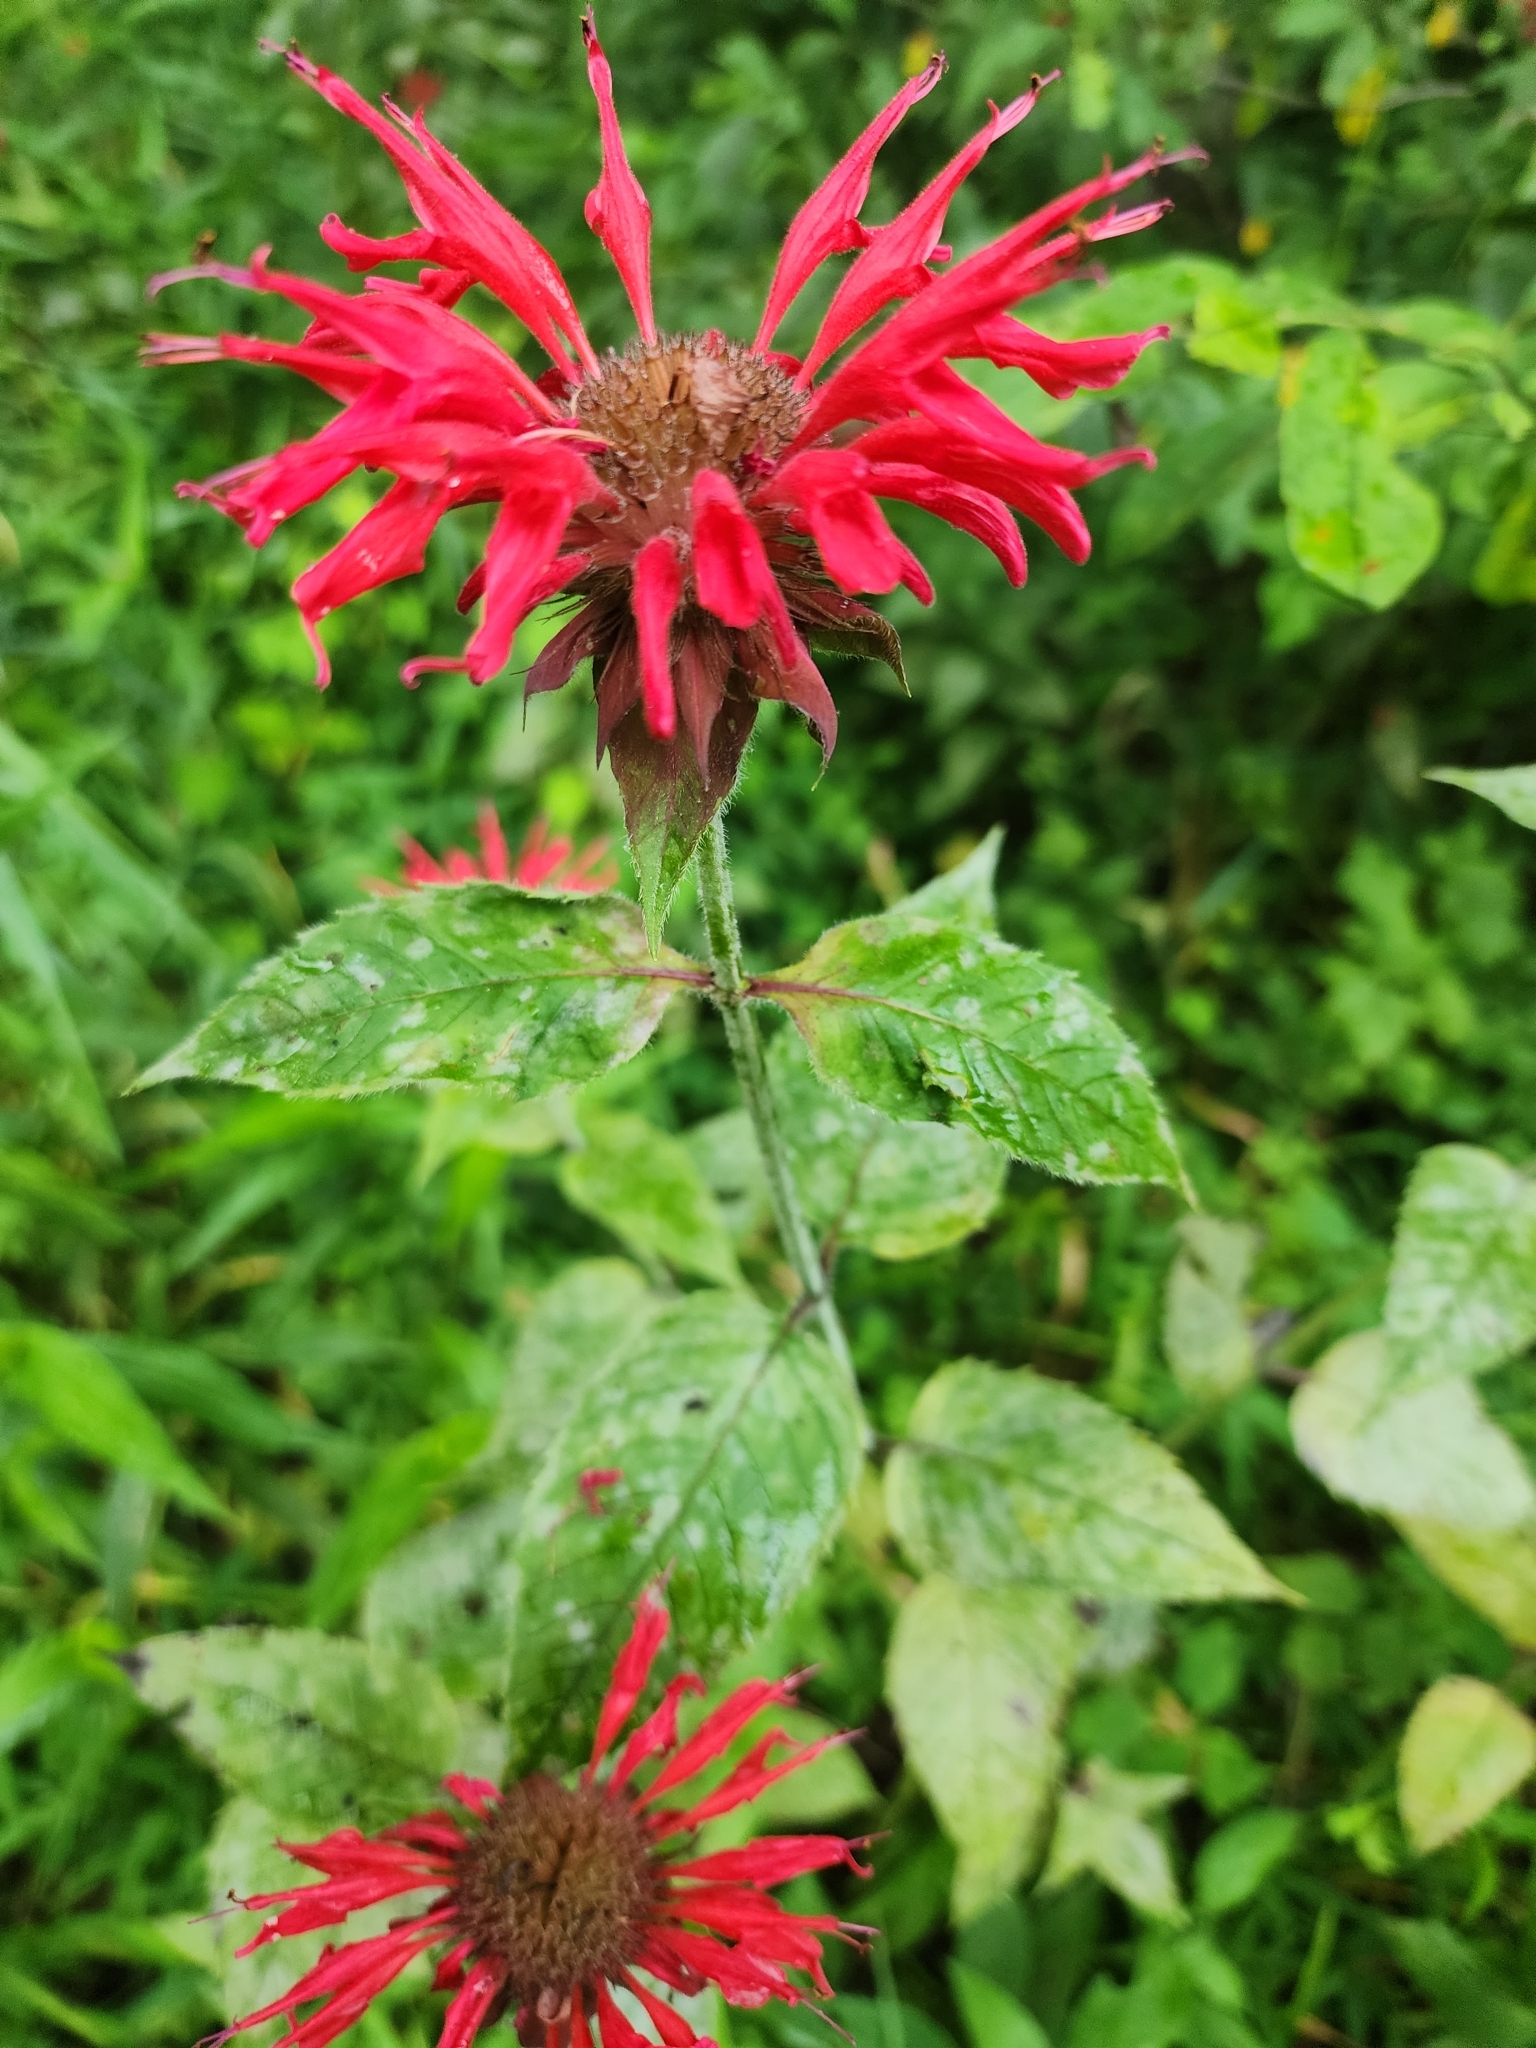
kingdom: Plantae
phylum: Tracheophyta
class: Magnoliopsida
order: Lamiales
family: Lamiaceae
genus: Monarda
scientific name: Monarda didyma
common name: Beebalm
